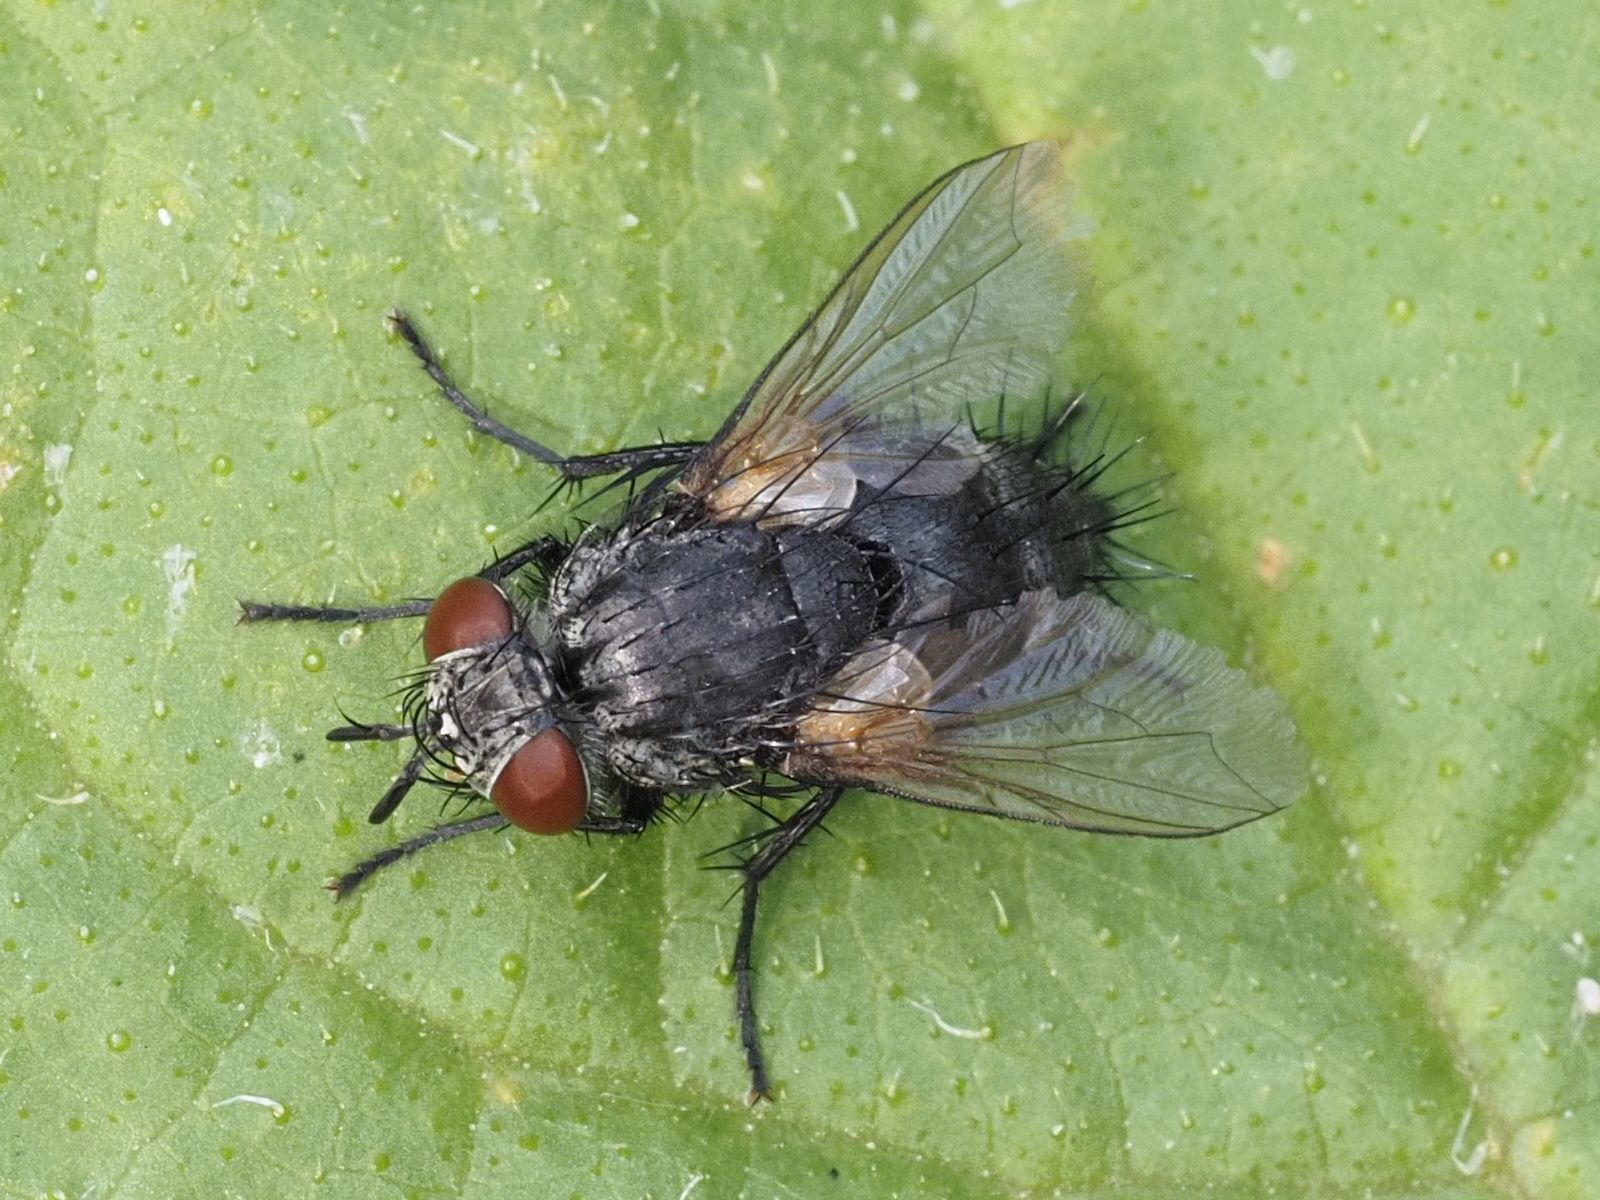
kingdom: Animalia
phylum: Arthropoda
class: Insecta
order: Diptera
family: Tachinidae
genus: Voria
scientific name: Voria ruralis
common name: Parasitic fly
